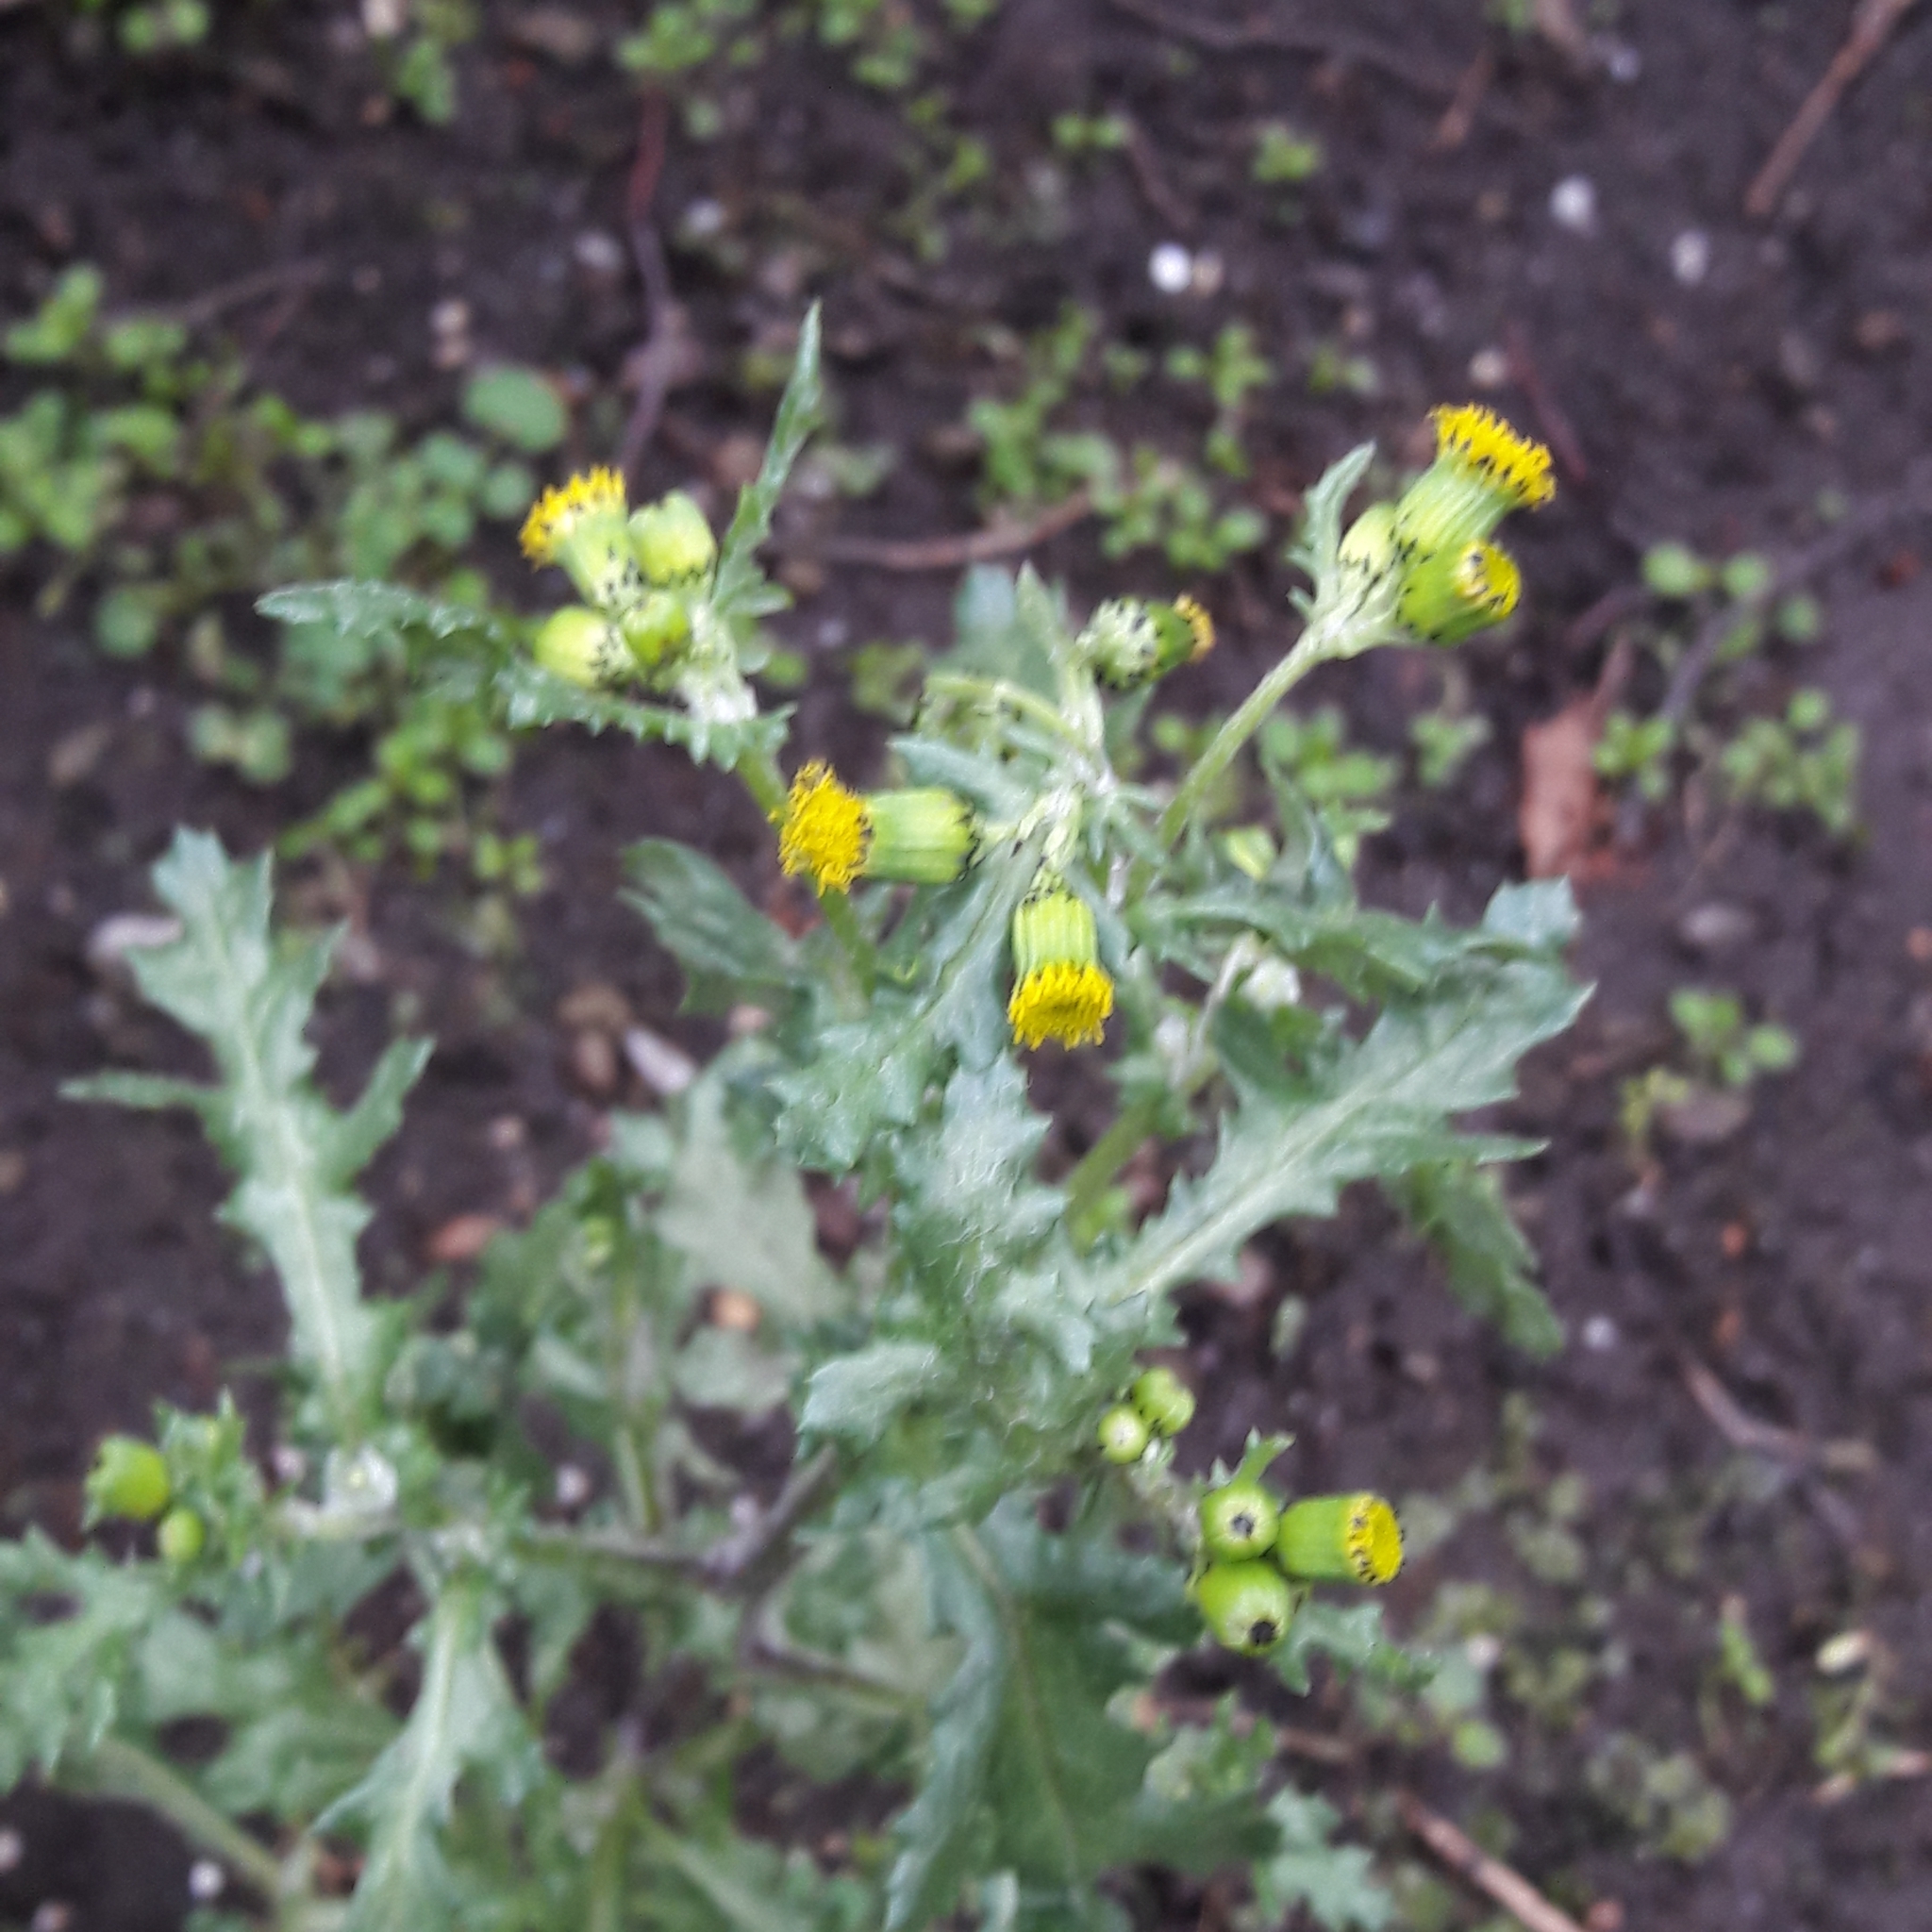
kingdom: Plantae
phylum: Tracheophyta
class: Magnoliopsida
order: Asterales
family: Asteraceae
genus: Senecio
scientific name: Senecio vulgaris
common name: Old-man-in-the-spring
